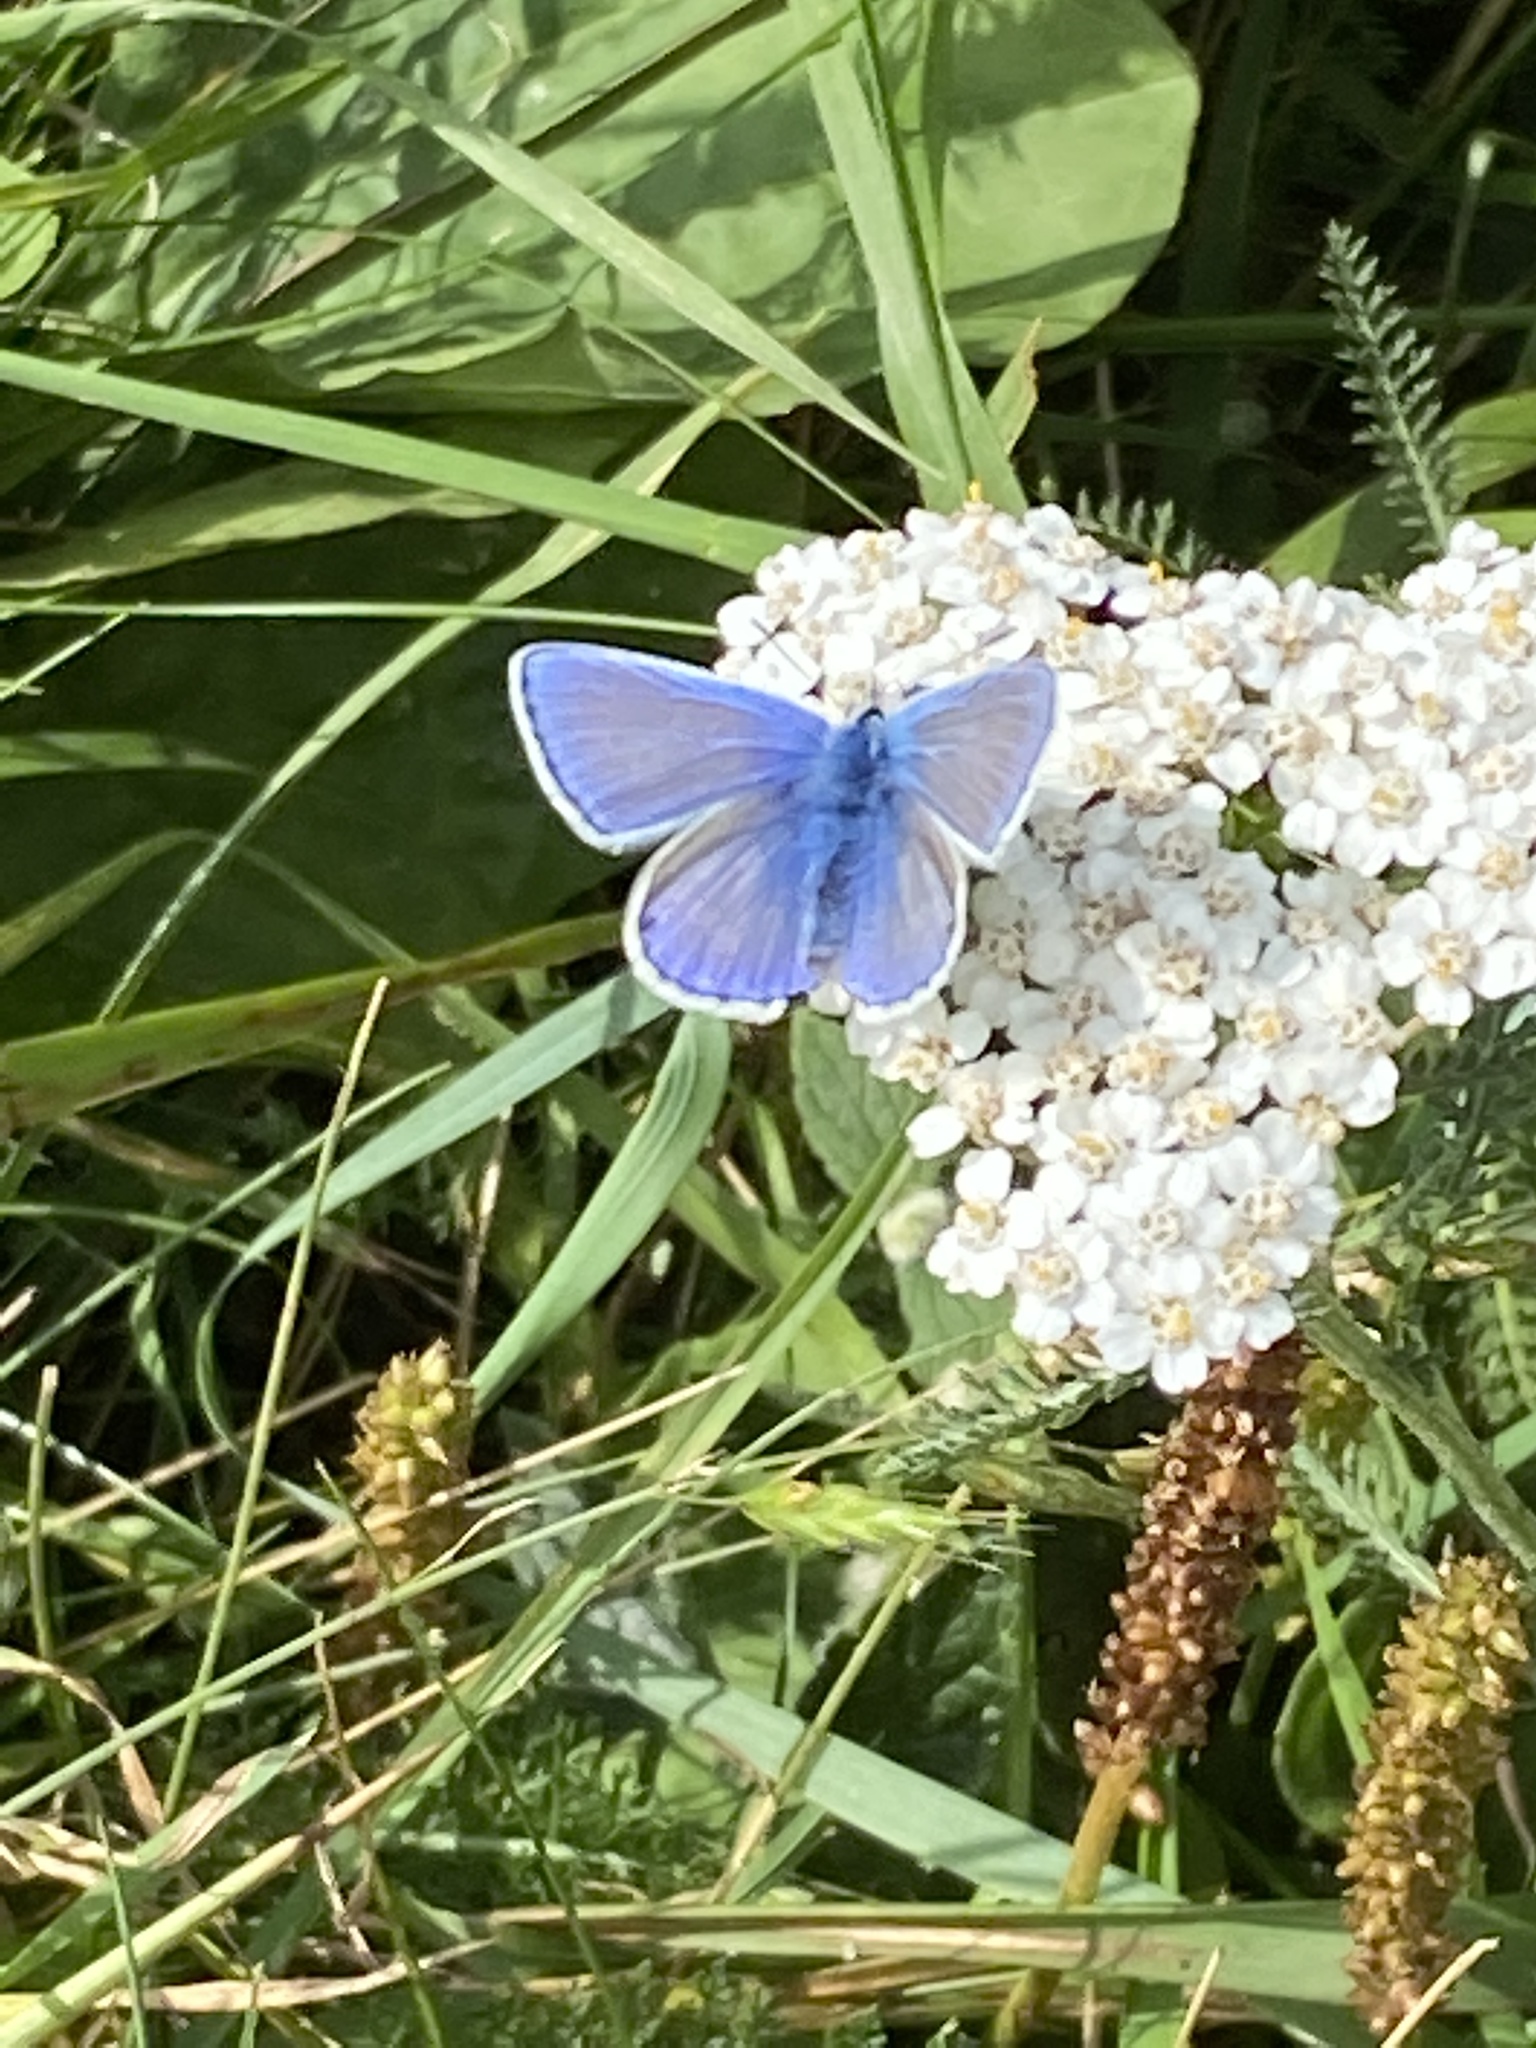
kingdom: Animalia
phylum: Arthropoda
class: Insecta
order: Lepidoptera
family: Lycaenidae
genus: Polyommatus
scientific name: Polyommatus icarus
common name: Common blue
